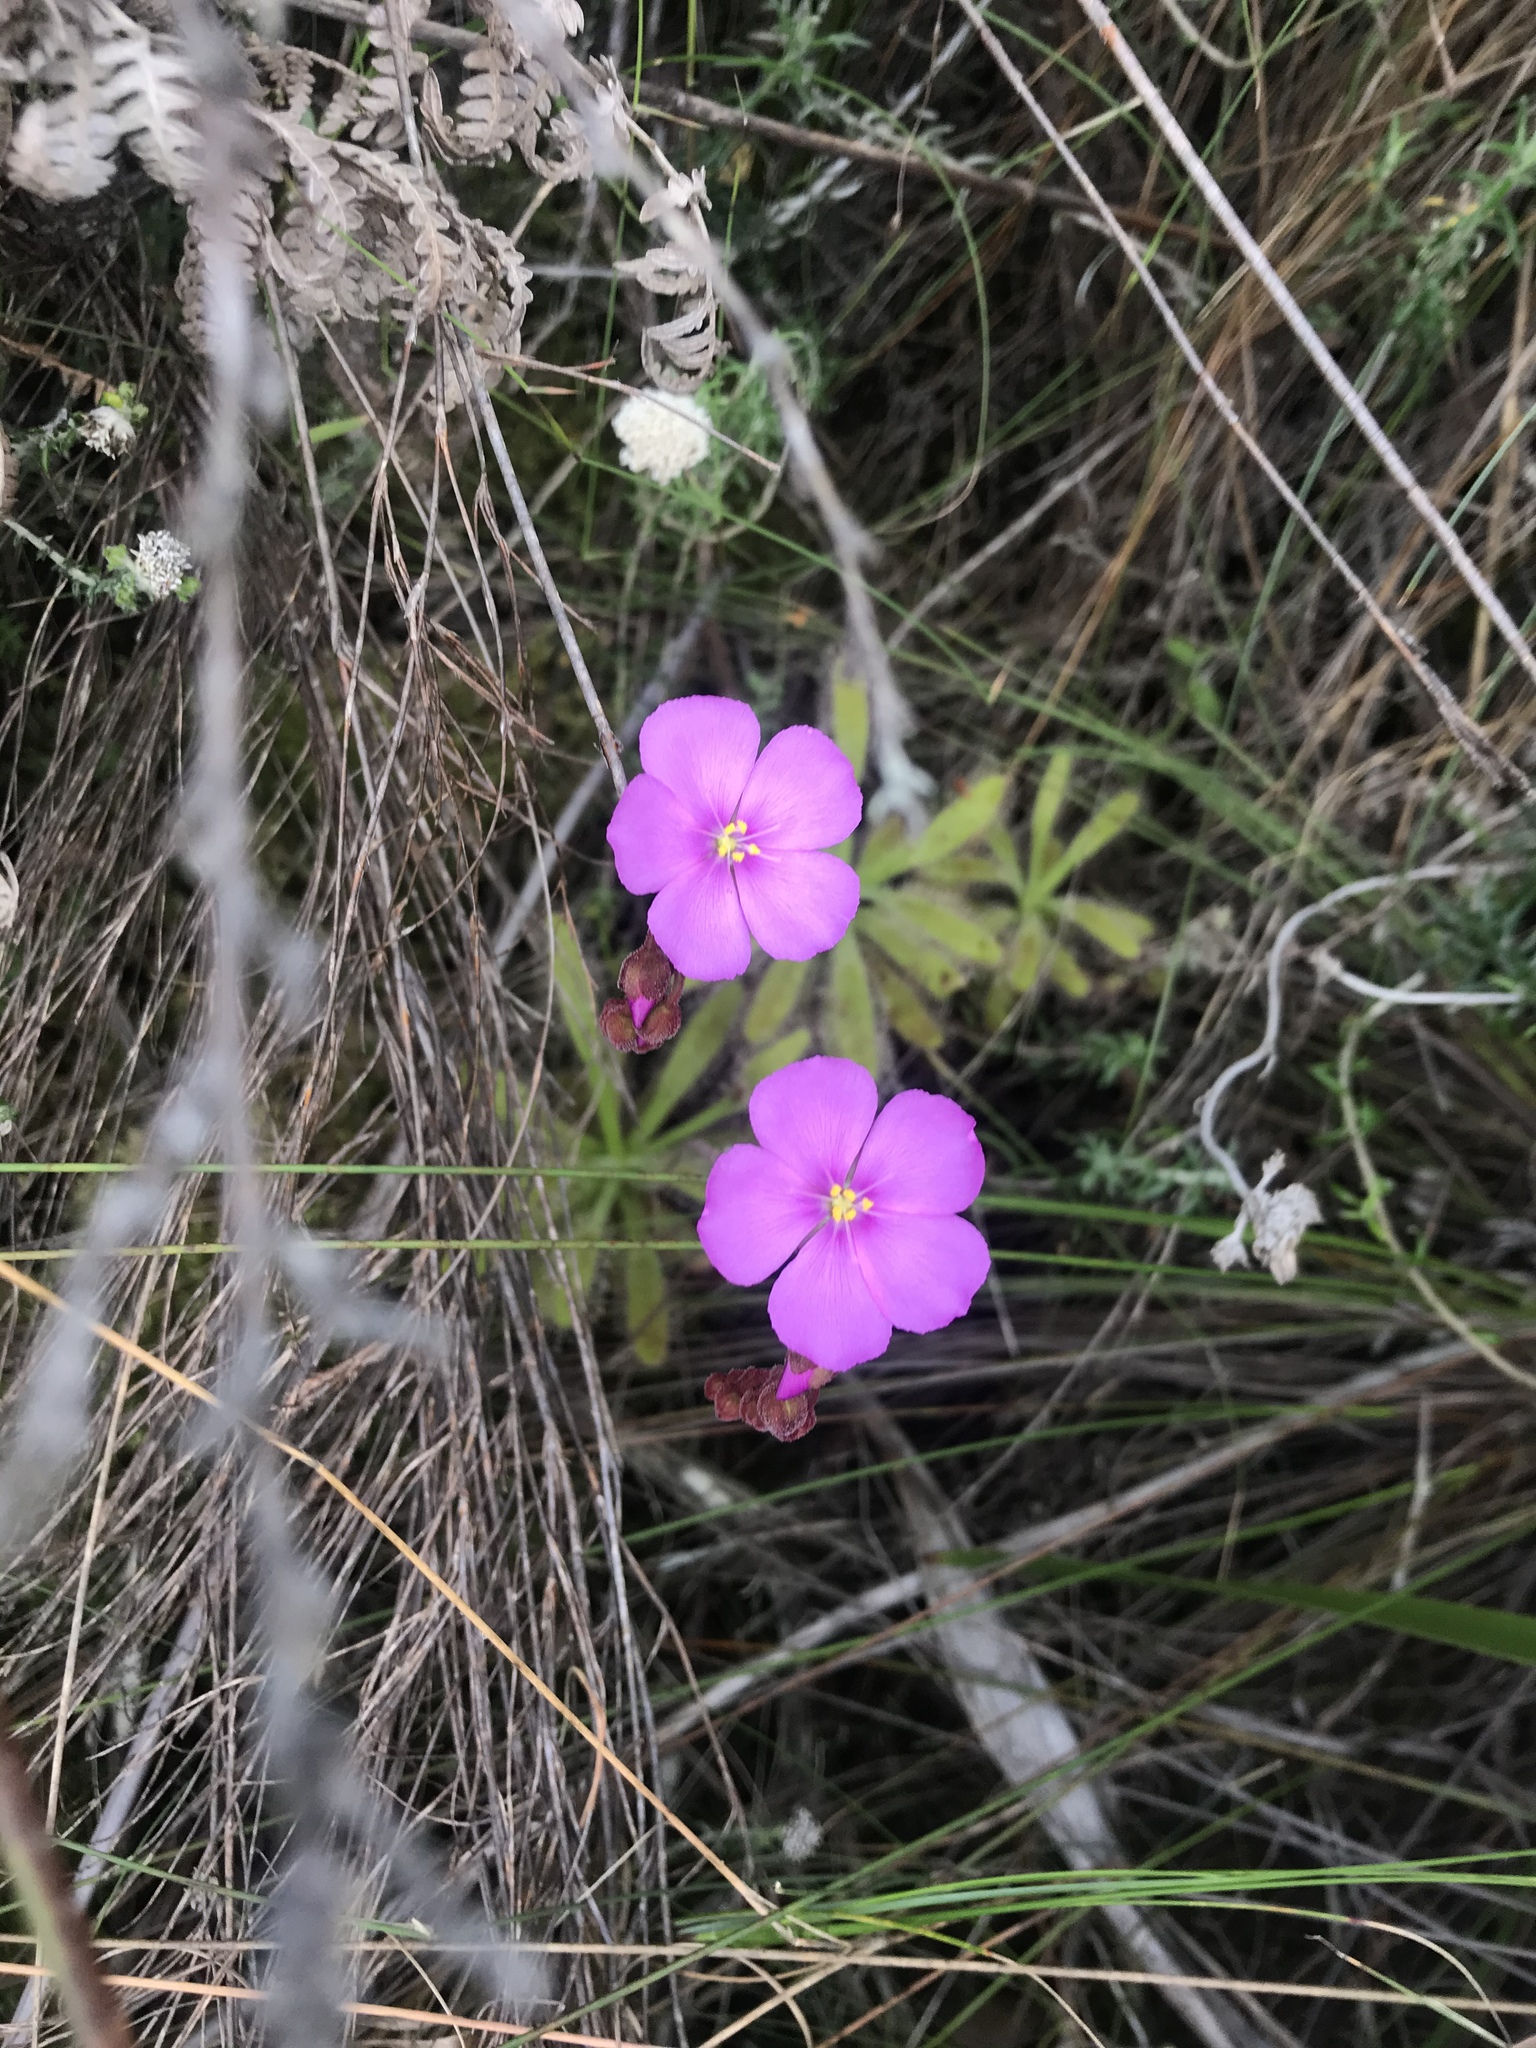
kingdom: Plantae
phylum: Tracheophyta
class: Magnoliopsida
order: Caryophyllales
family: Droseraceae
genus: Drosera
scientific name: Drosera hilaris
